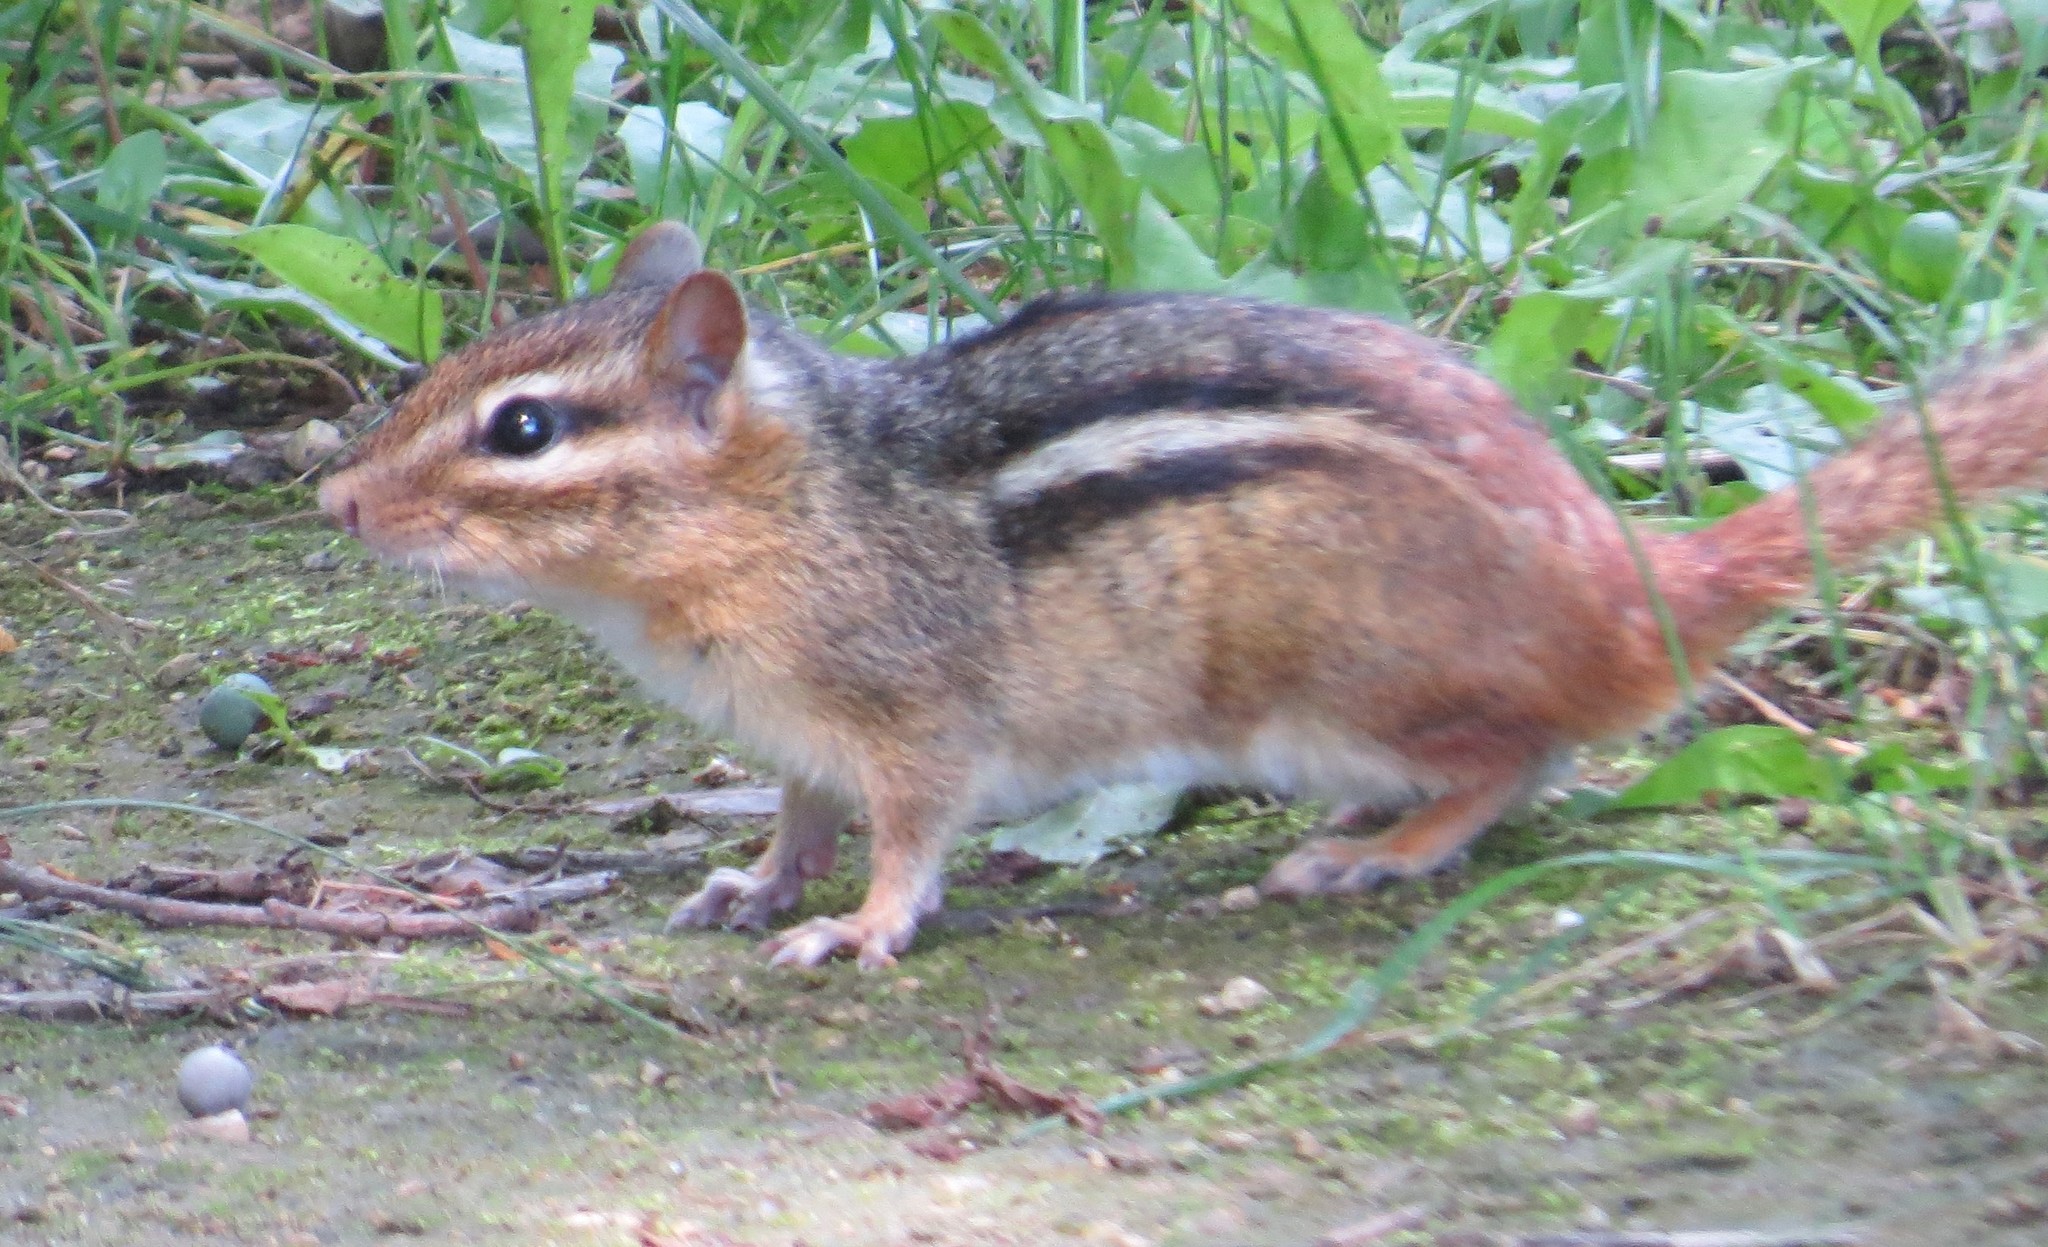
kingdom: Animalia
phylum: Chordata
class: Mammalia
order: Rodentia
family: Sciuridae
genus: Tamias
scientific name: Tamias striatus
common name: Eastern chipmunk
